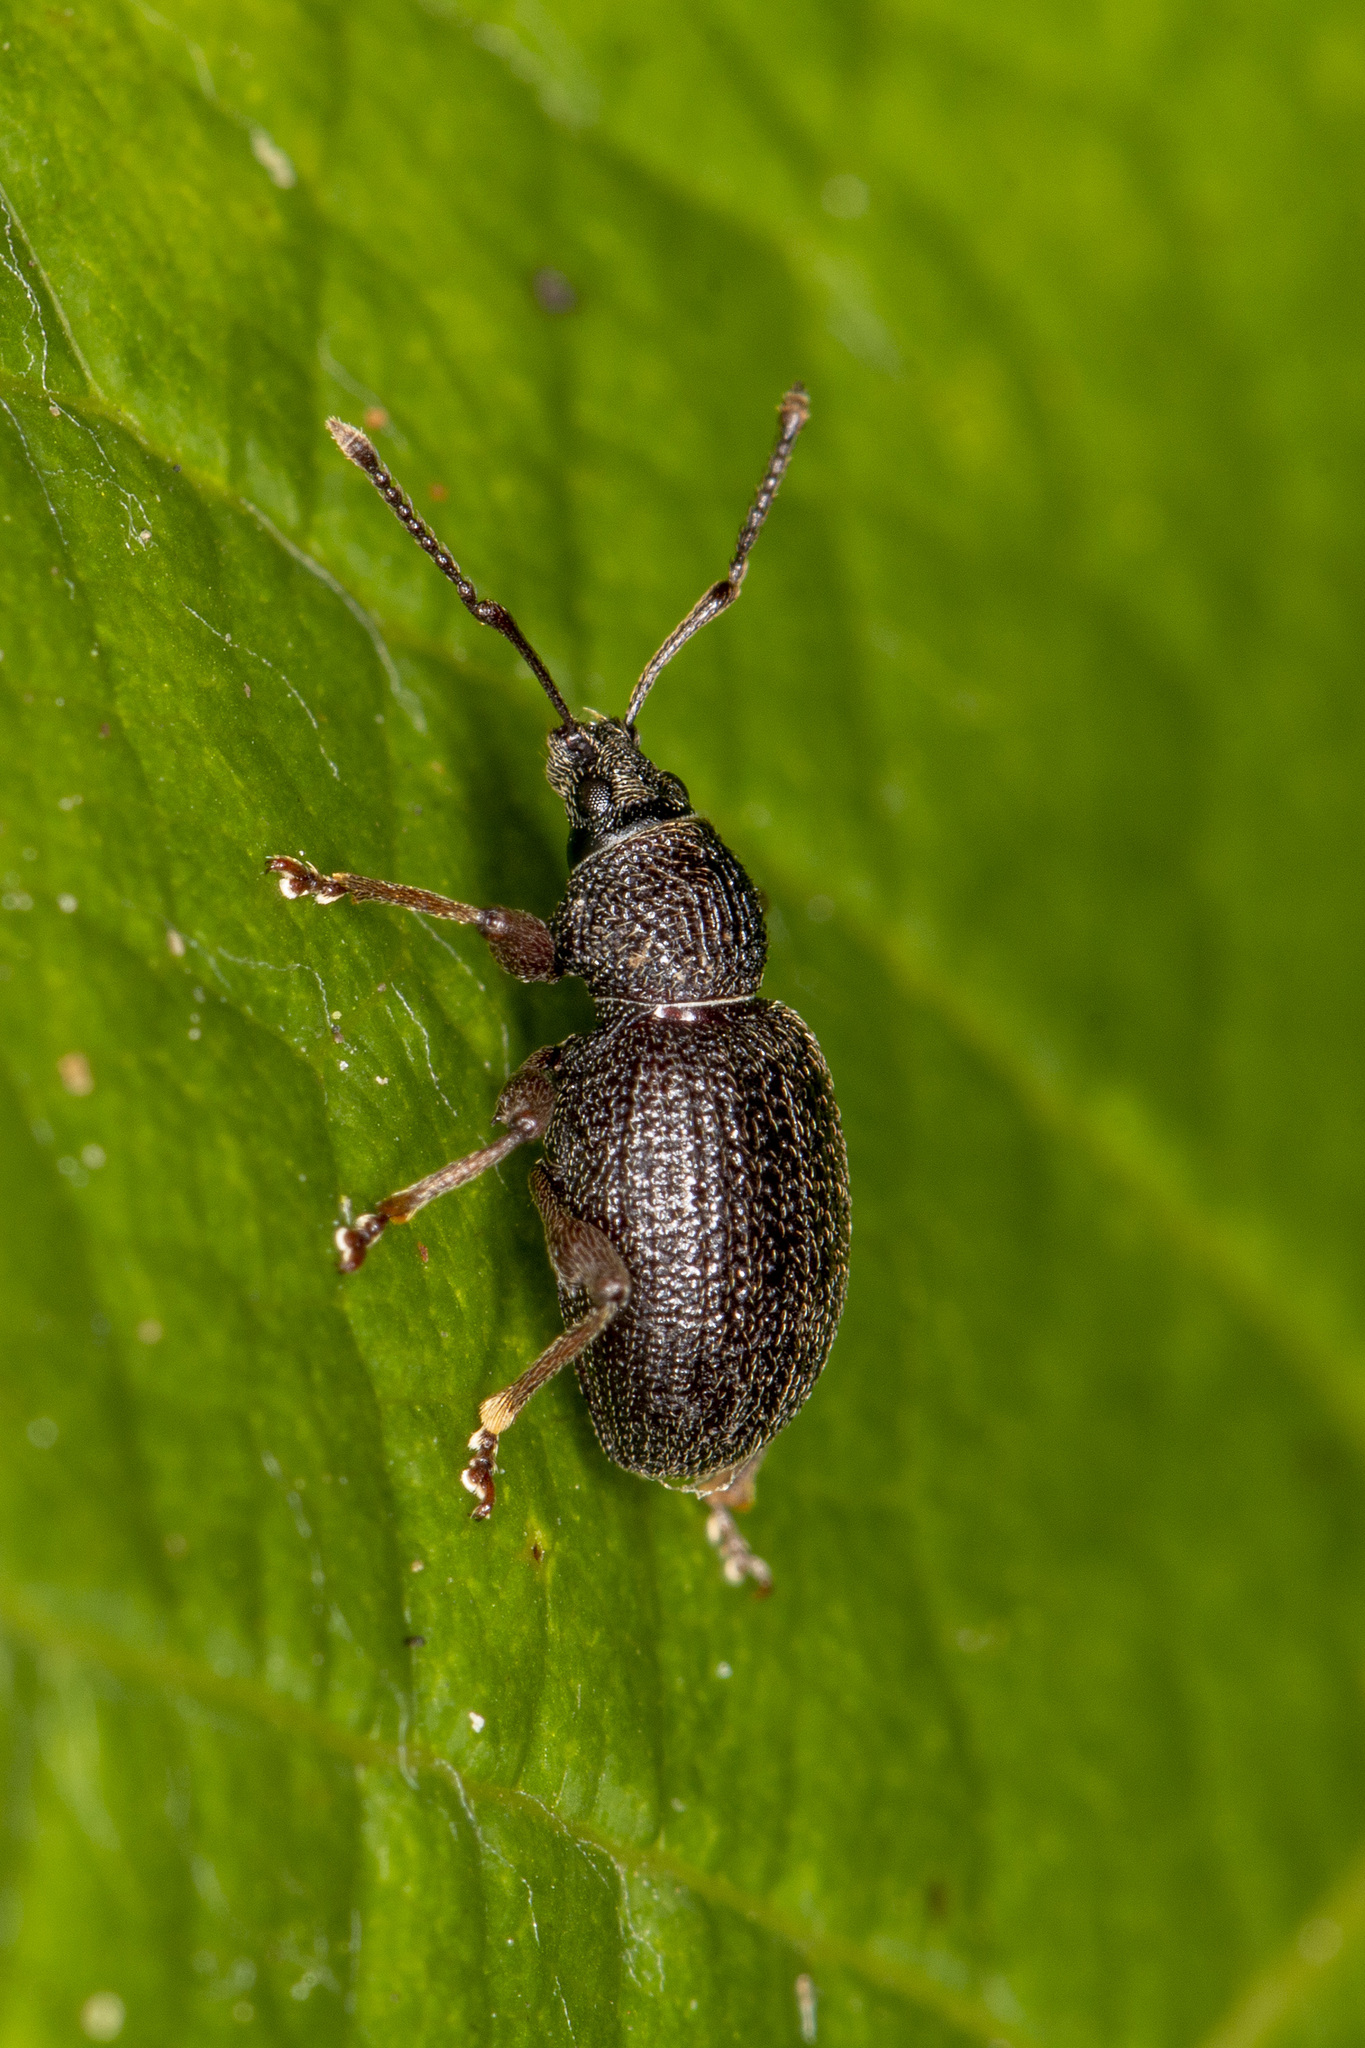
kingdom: Animalia
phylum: Arthropoda
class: Insecta
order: Coleoptera
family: Curculionidae
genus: Otiorhynchus
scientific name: Otiorhynchus ovatus
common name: Strawberry root weevil
